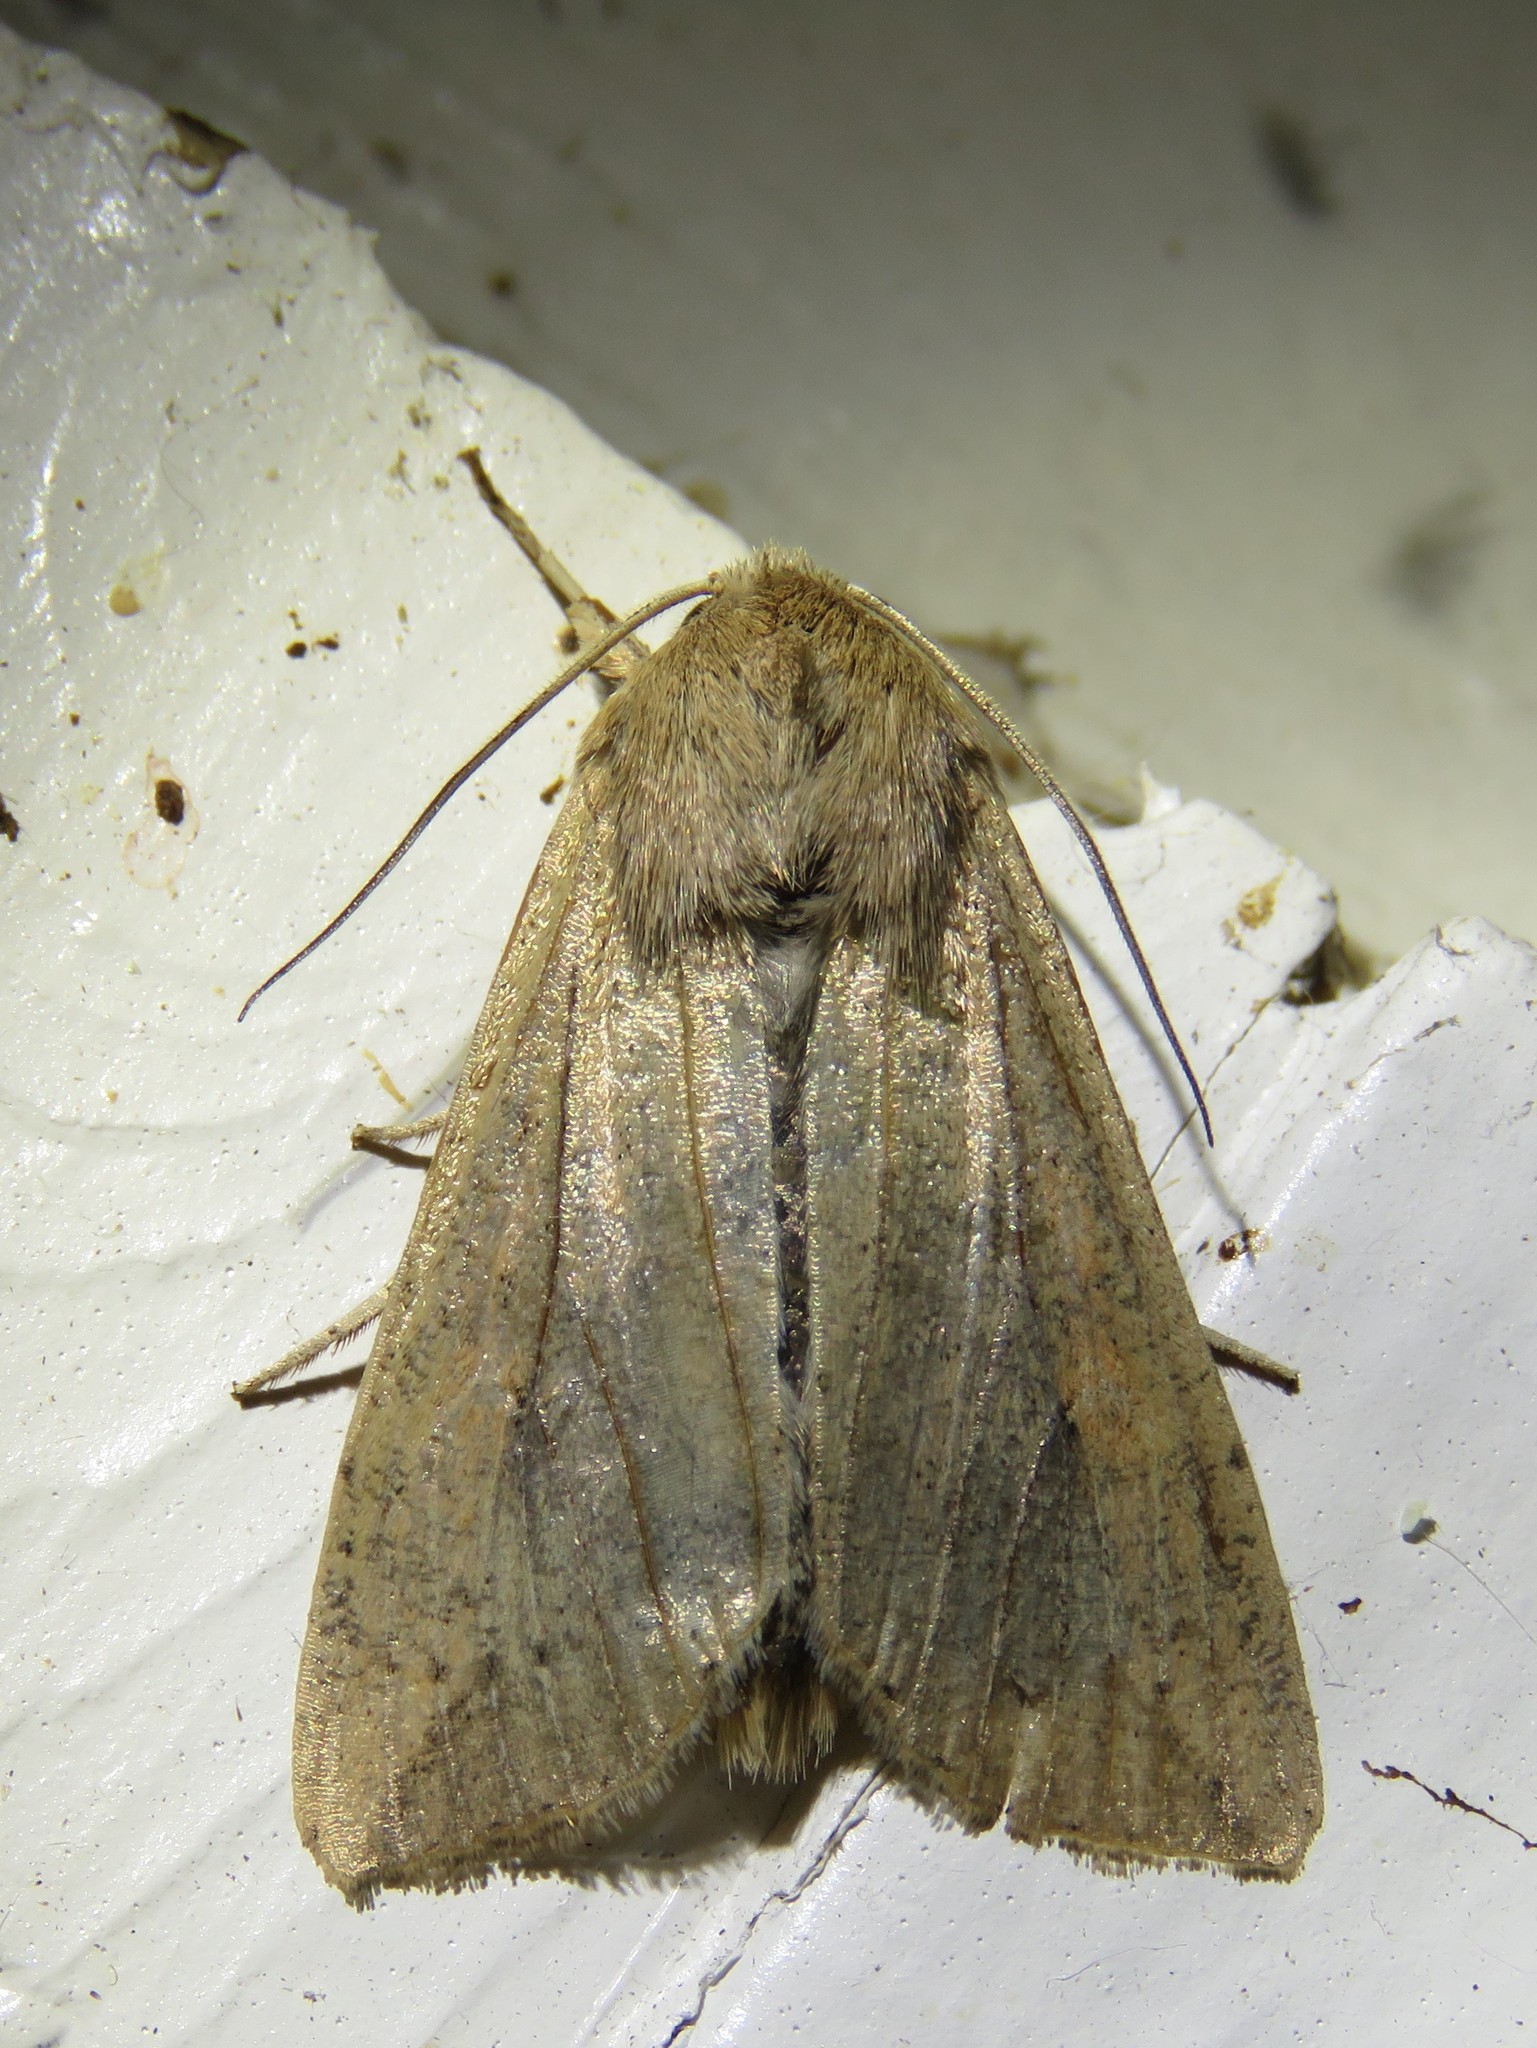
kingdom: Animalia
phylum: Arthropoda
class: Insecta
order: Lepidoptera
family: Noctuidae
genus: Mythimna
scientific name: Mythimna unipuncta
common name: White-speck
